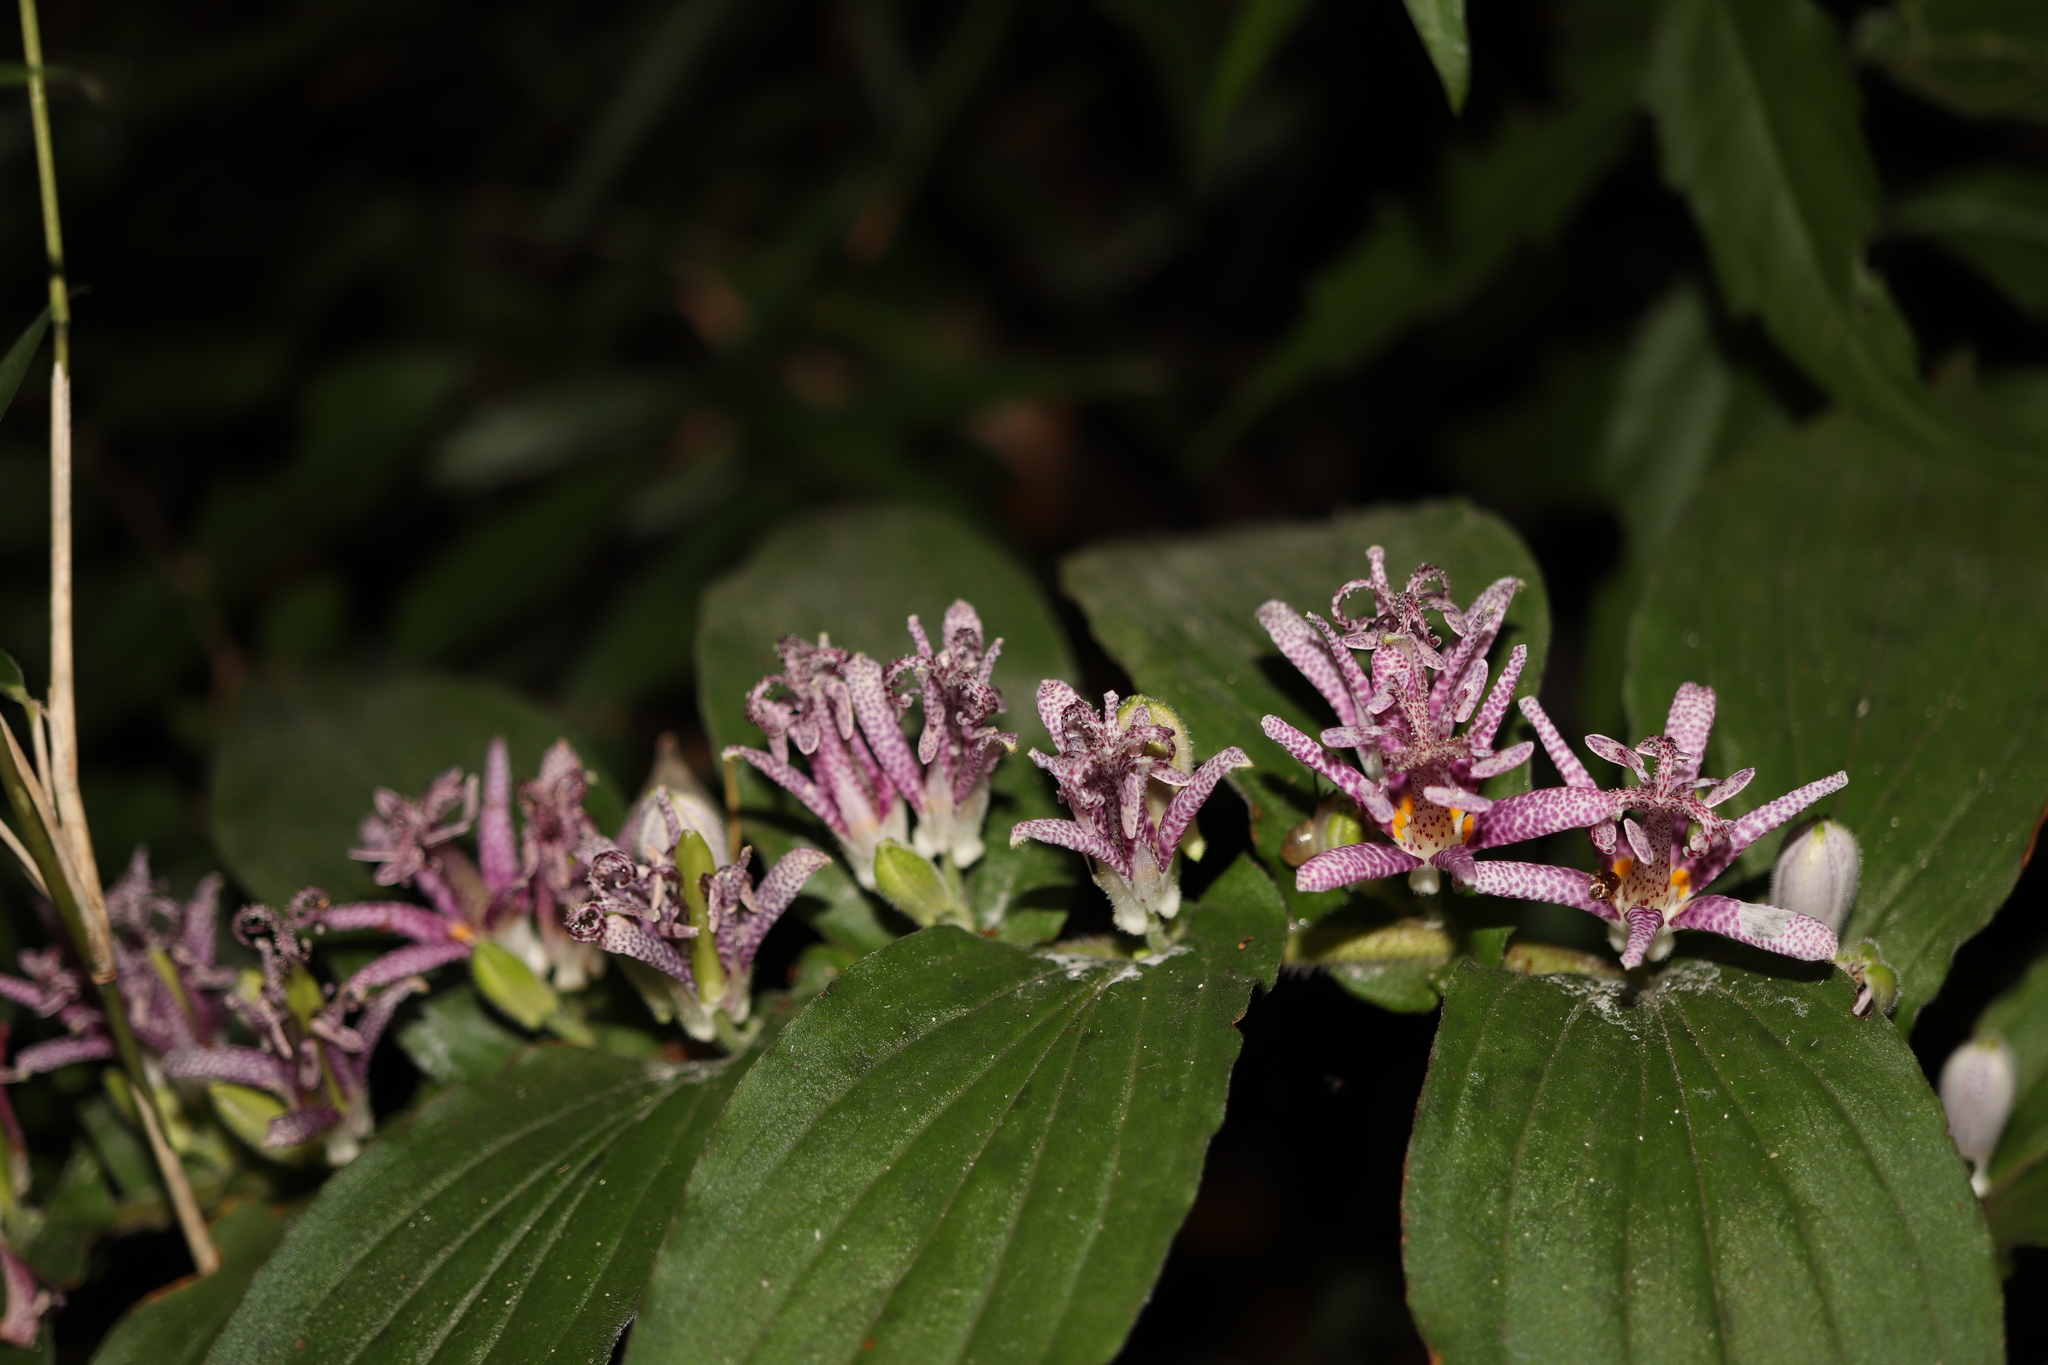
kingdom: Plantae
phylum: Tracheophyta
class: Liliopsida
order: Liliales
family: Liliaceae
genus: Tricyrtis
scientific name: Tricyrtis hirta
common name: Toadlily
